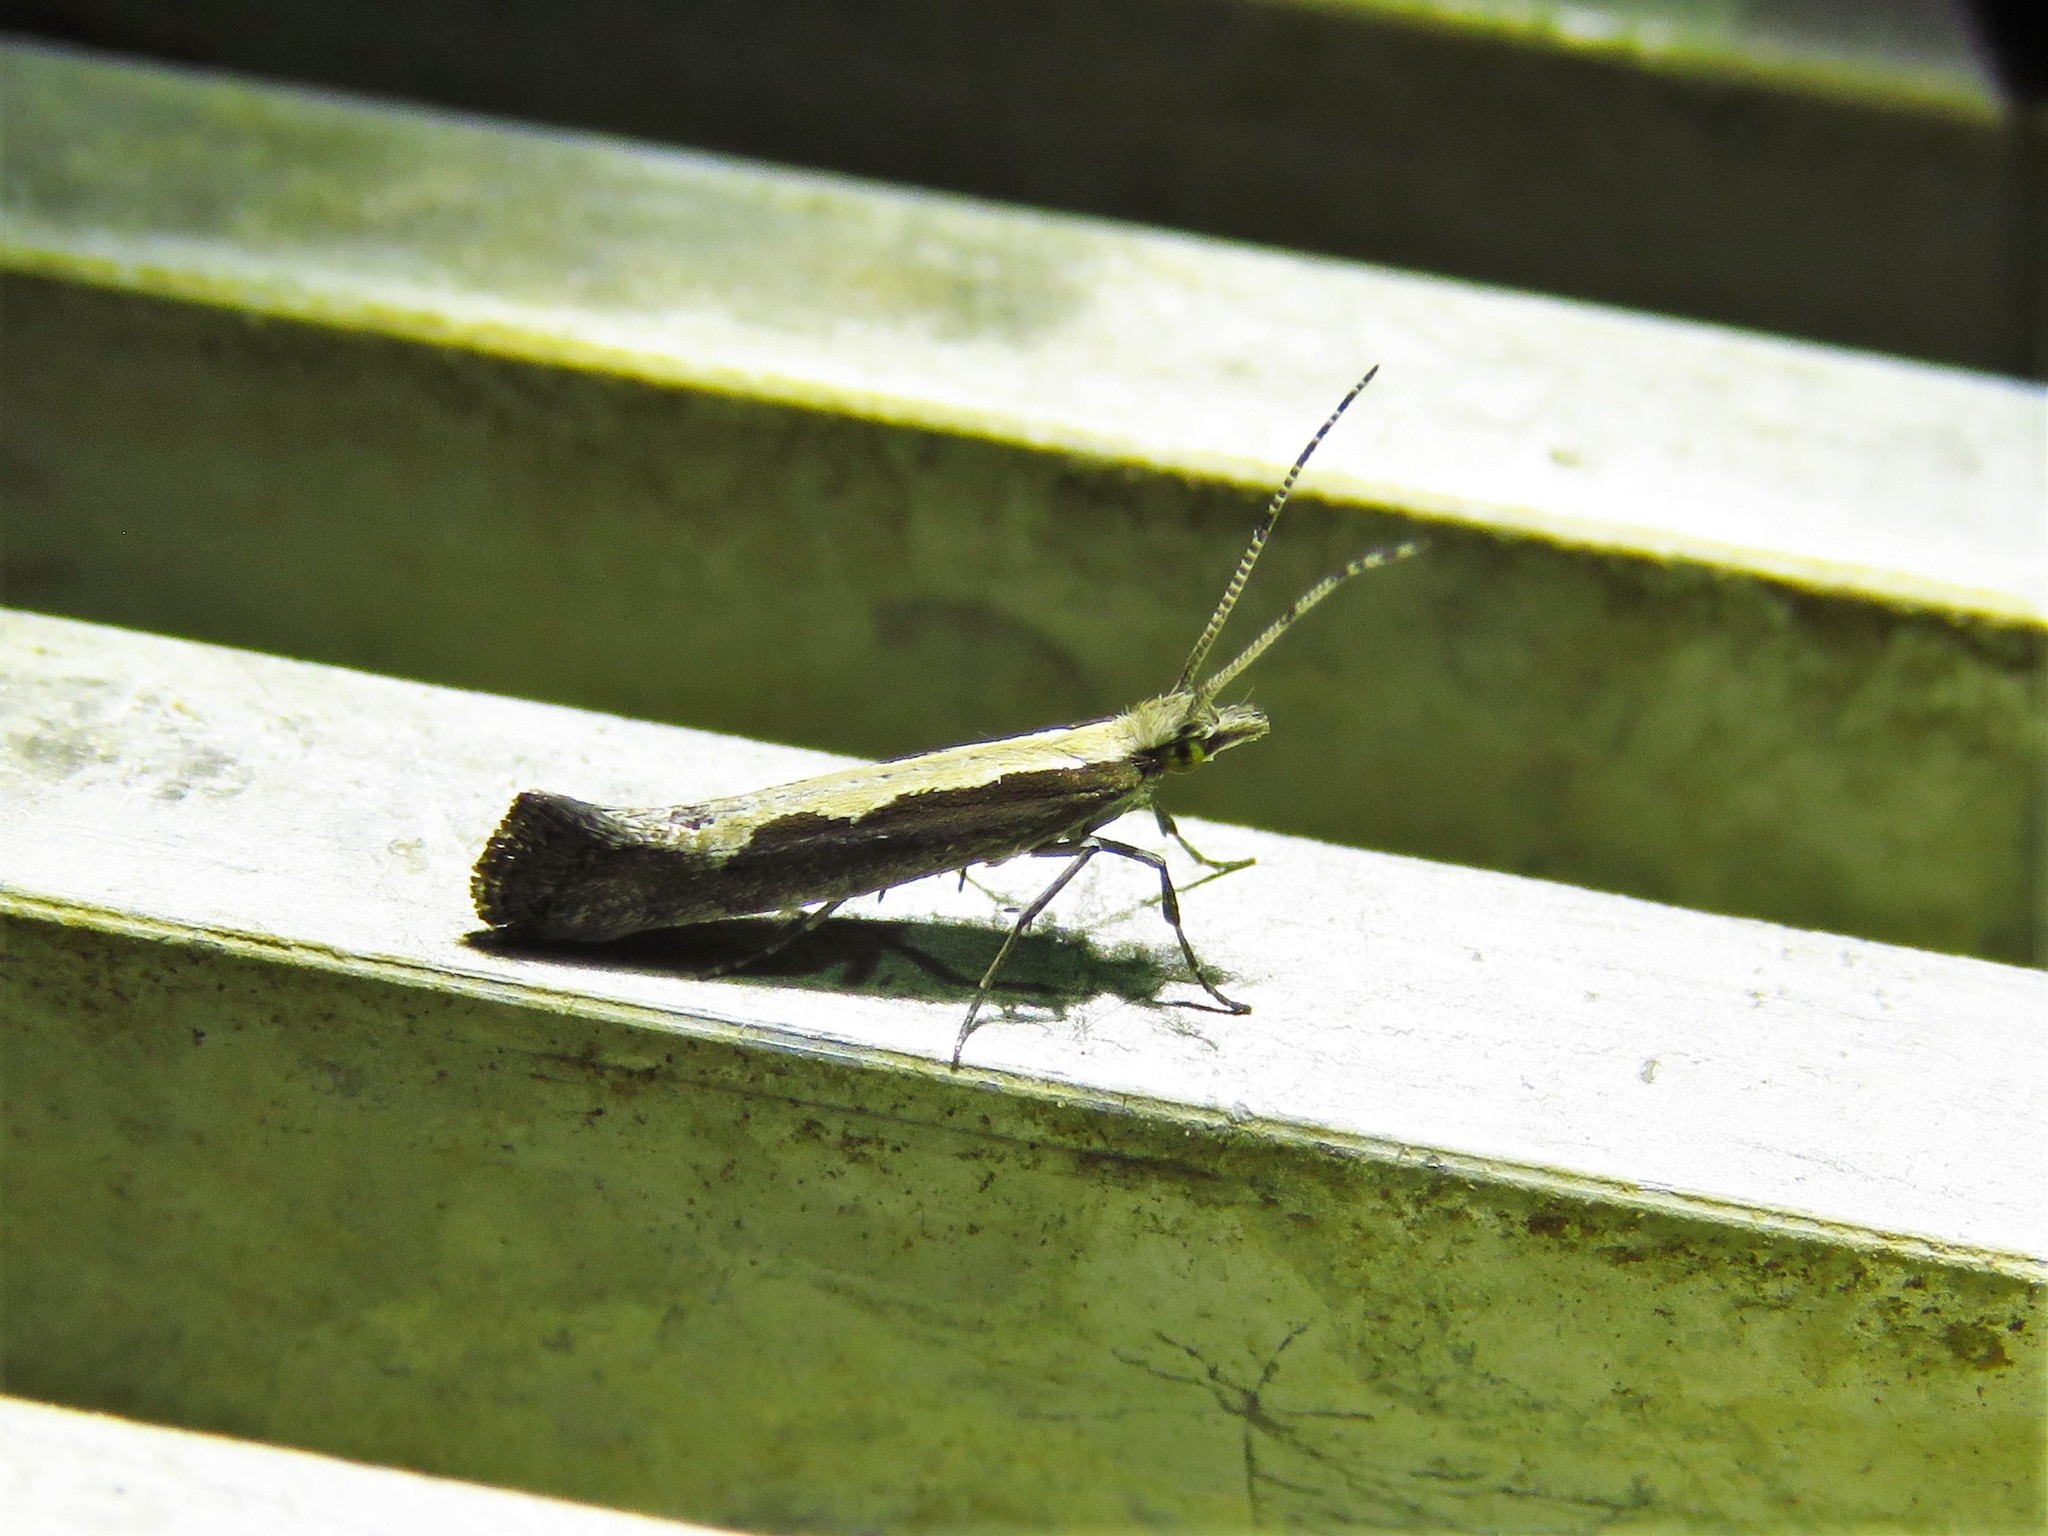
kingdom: Animalia
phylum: Arthropoda
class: Insecta
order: Lepidoptera
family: Plutellidae
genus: Plutella
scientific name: Plutella xylostella
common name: Diamond-back moth
